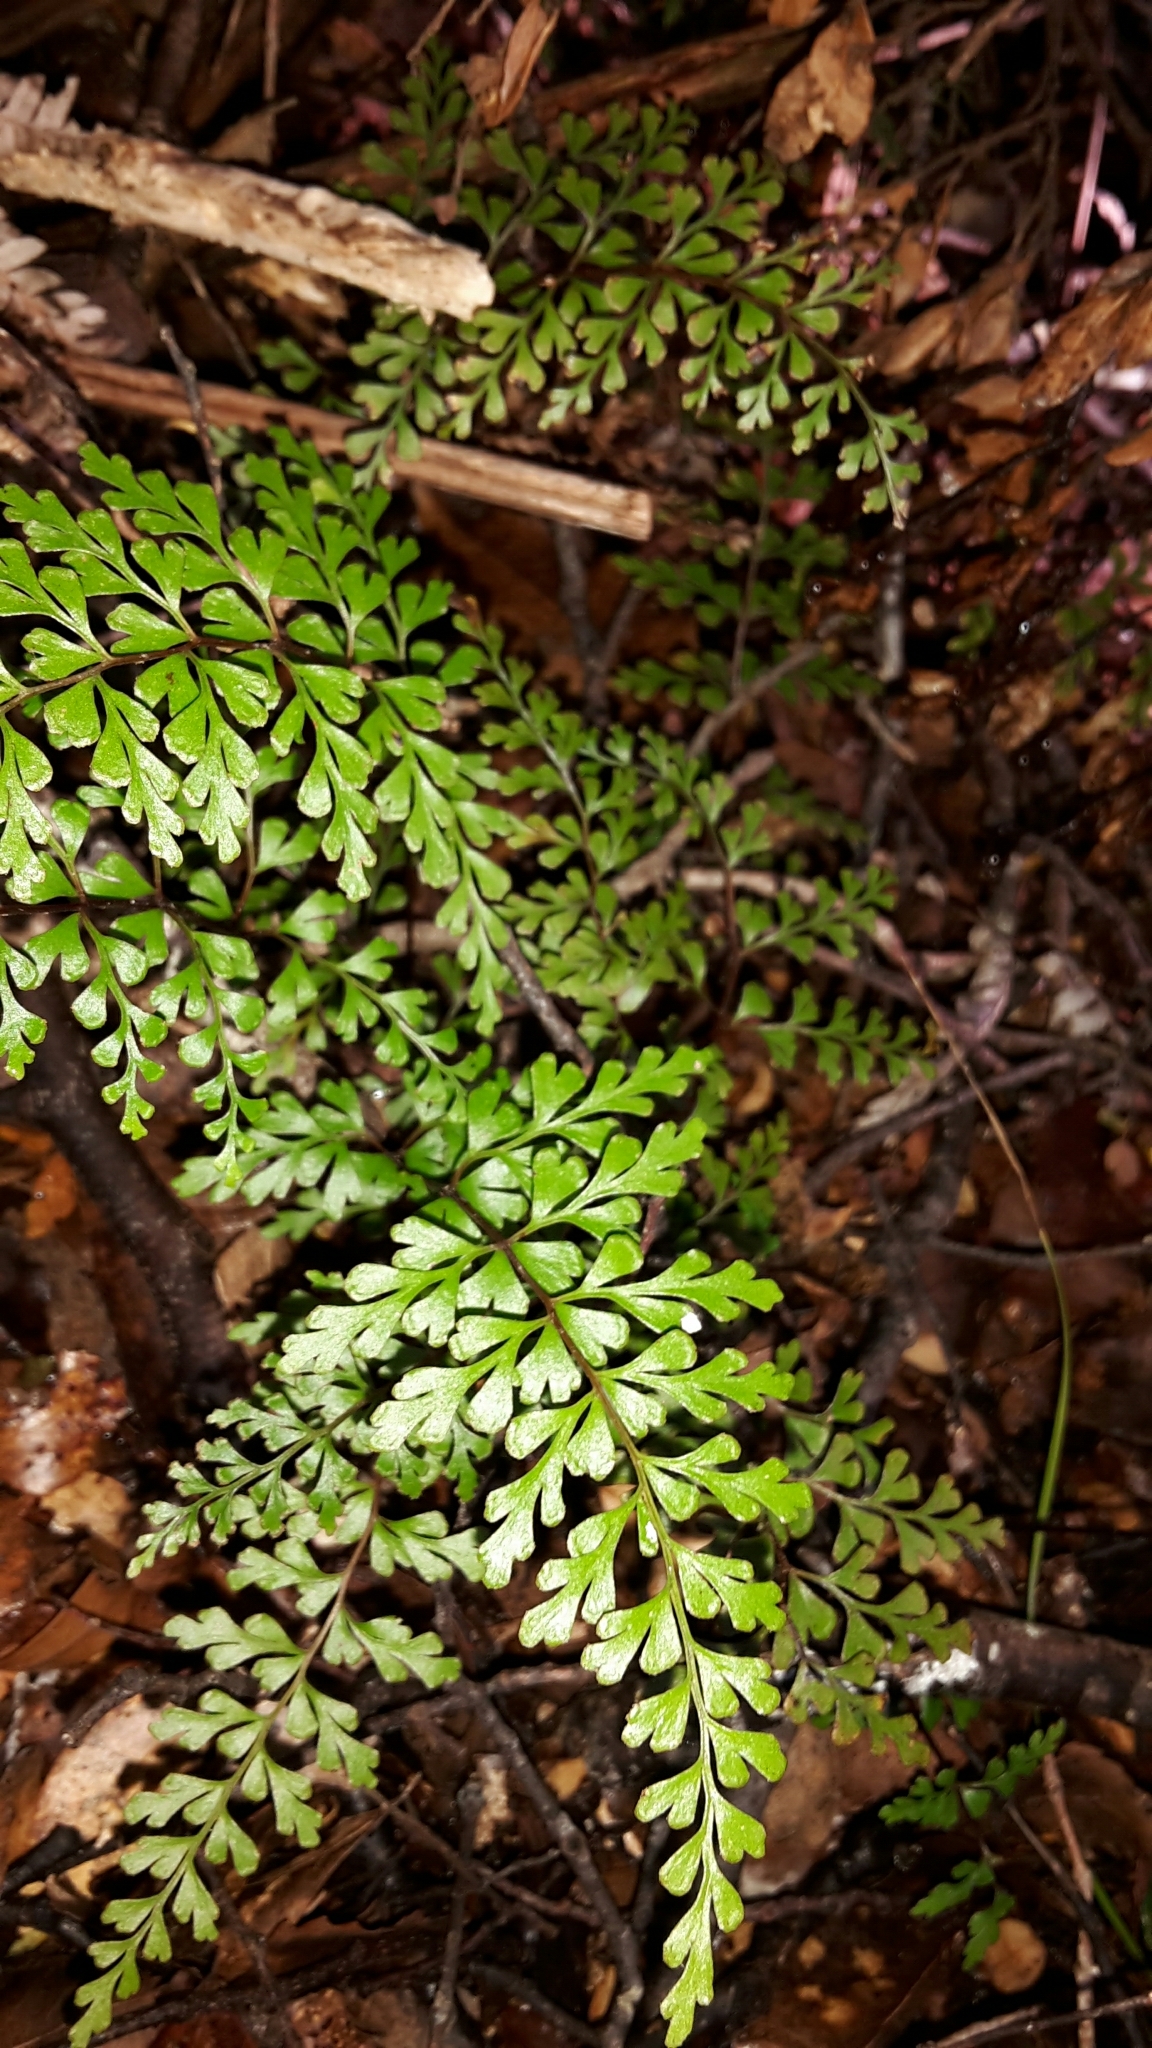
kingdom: Plantae
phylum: Tracheophyta
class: Polypodiopsida
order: Polypodiales
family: Lindsaeaceae
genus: Lindsaea
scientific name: Lindsaea trichomanoides
